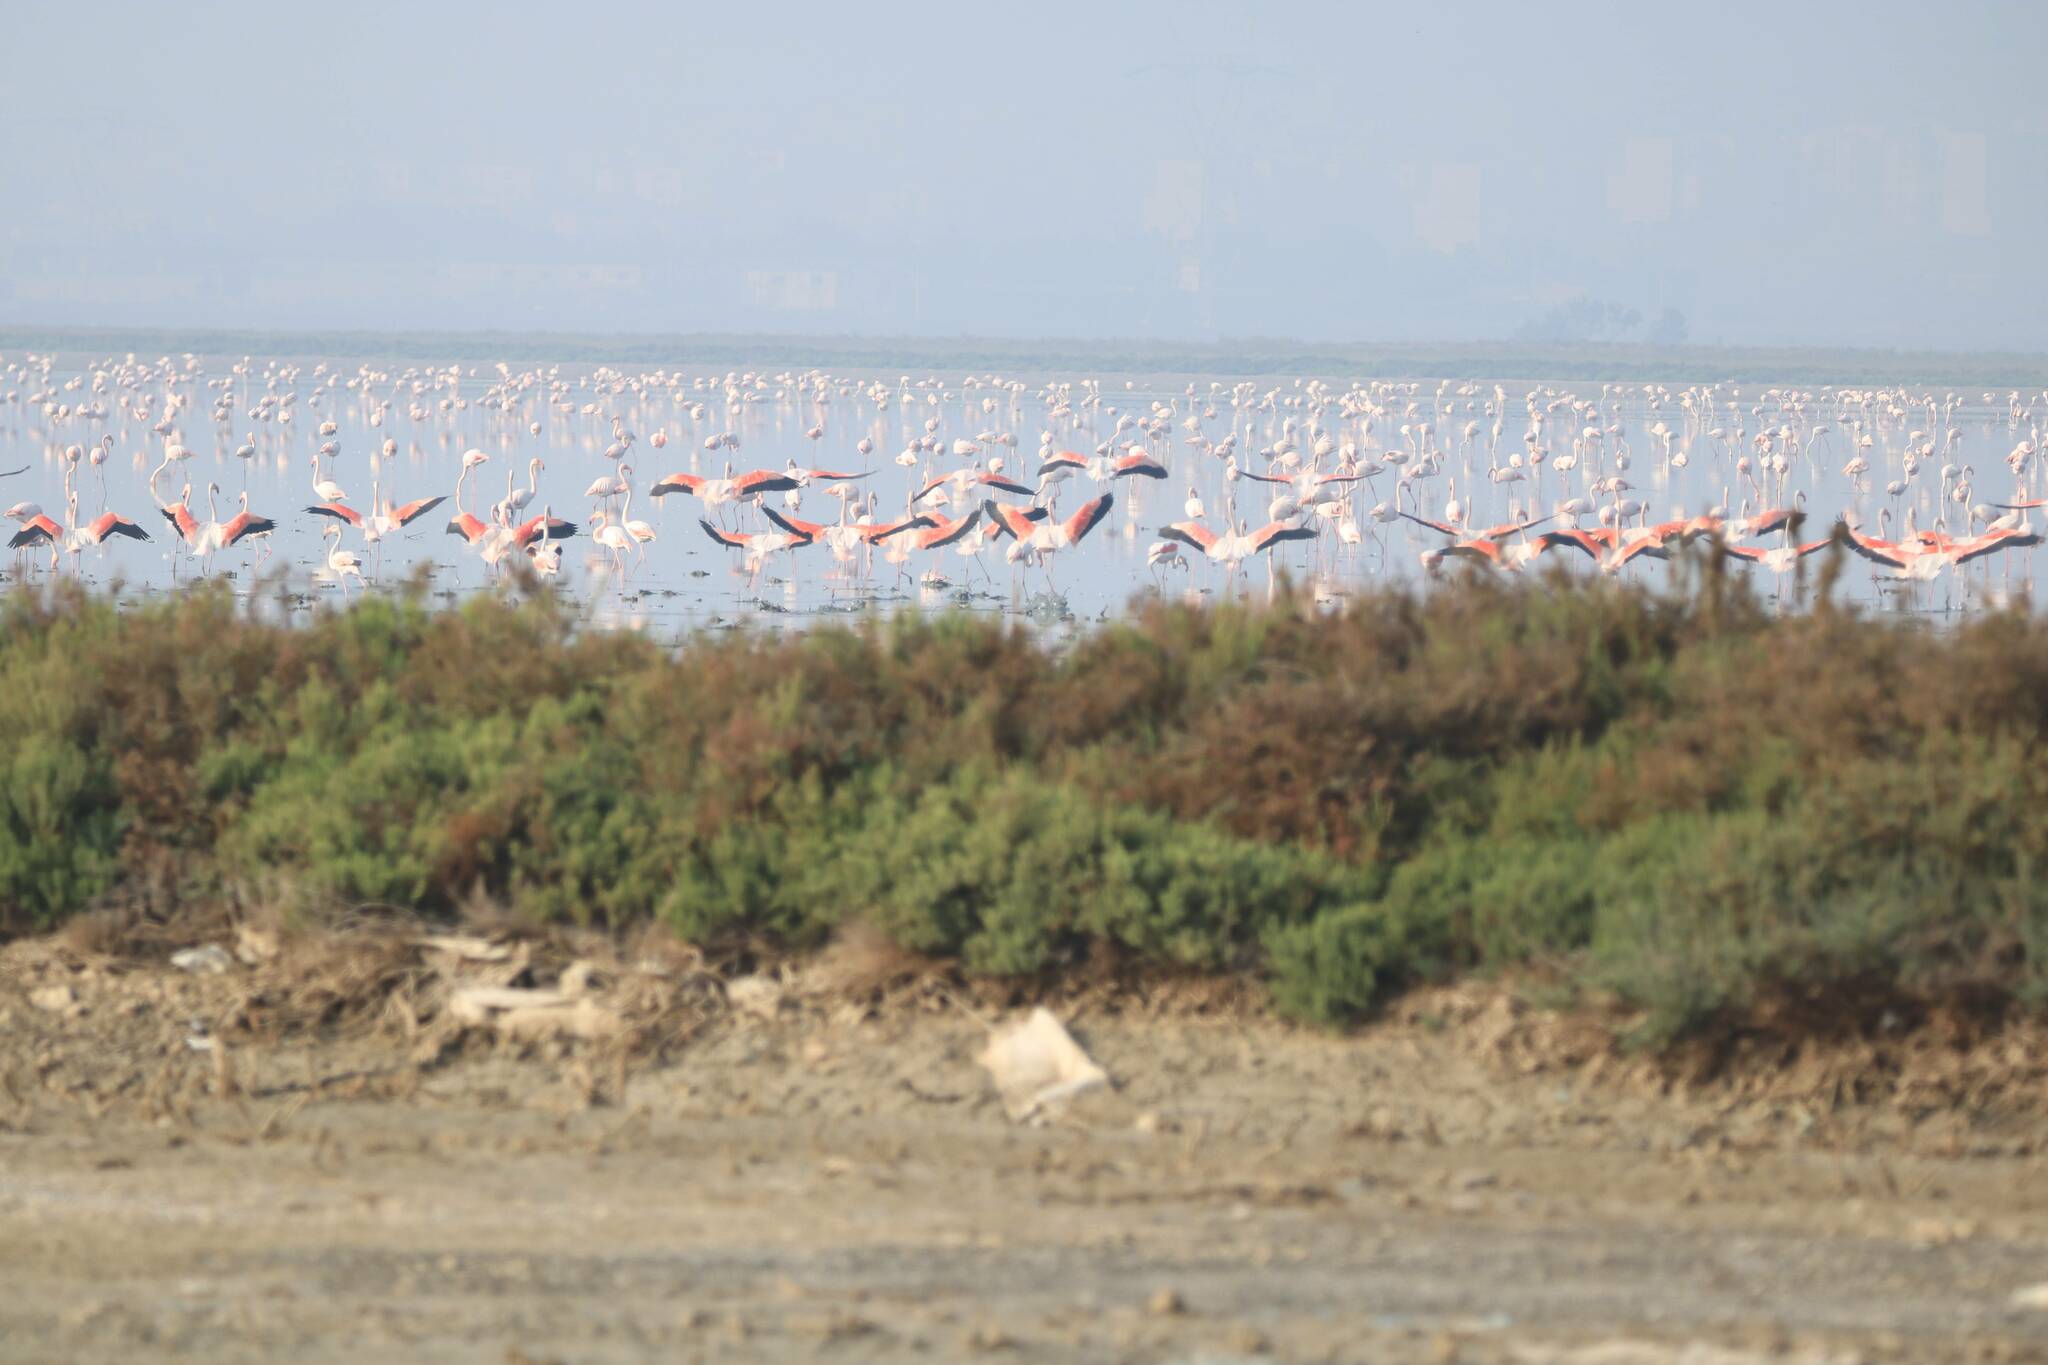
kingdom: Animalia
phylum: Chordata
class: Aves
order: Phoenicopteriformes
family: Phoenicopteridae
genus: Phoenicopterus
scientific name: Phoenicopterus roseus
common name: Greater flamingo
